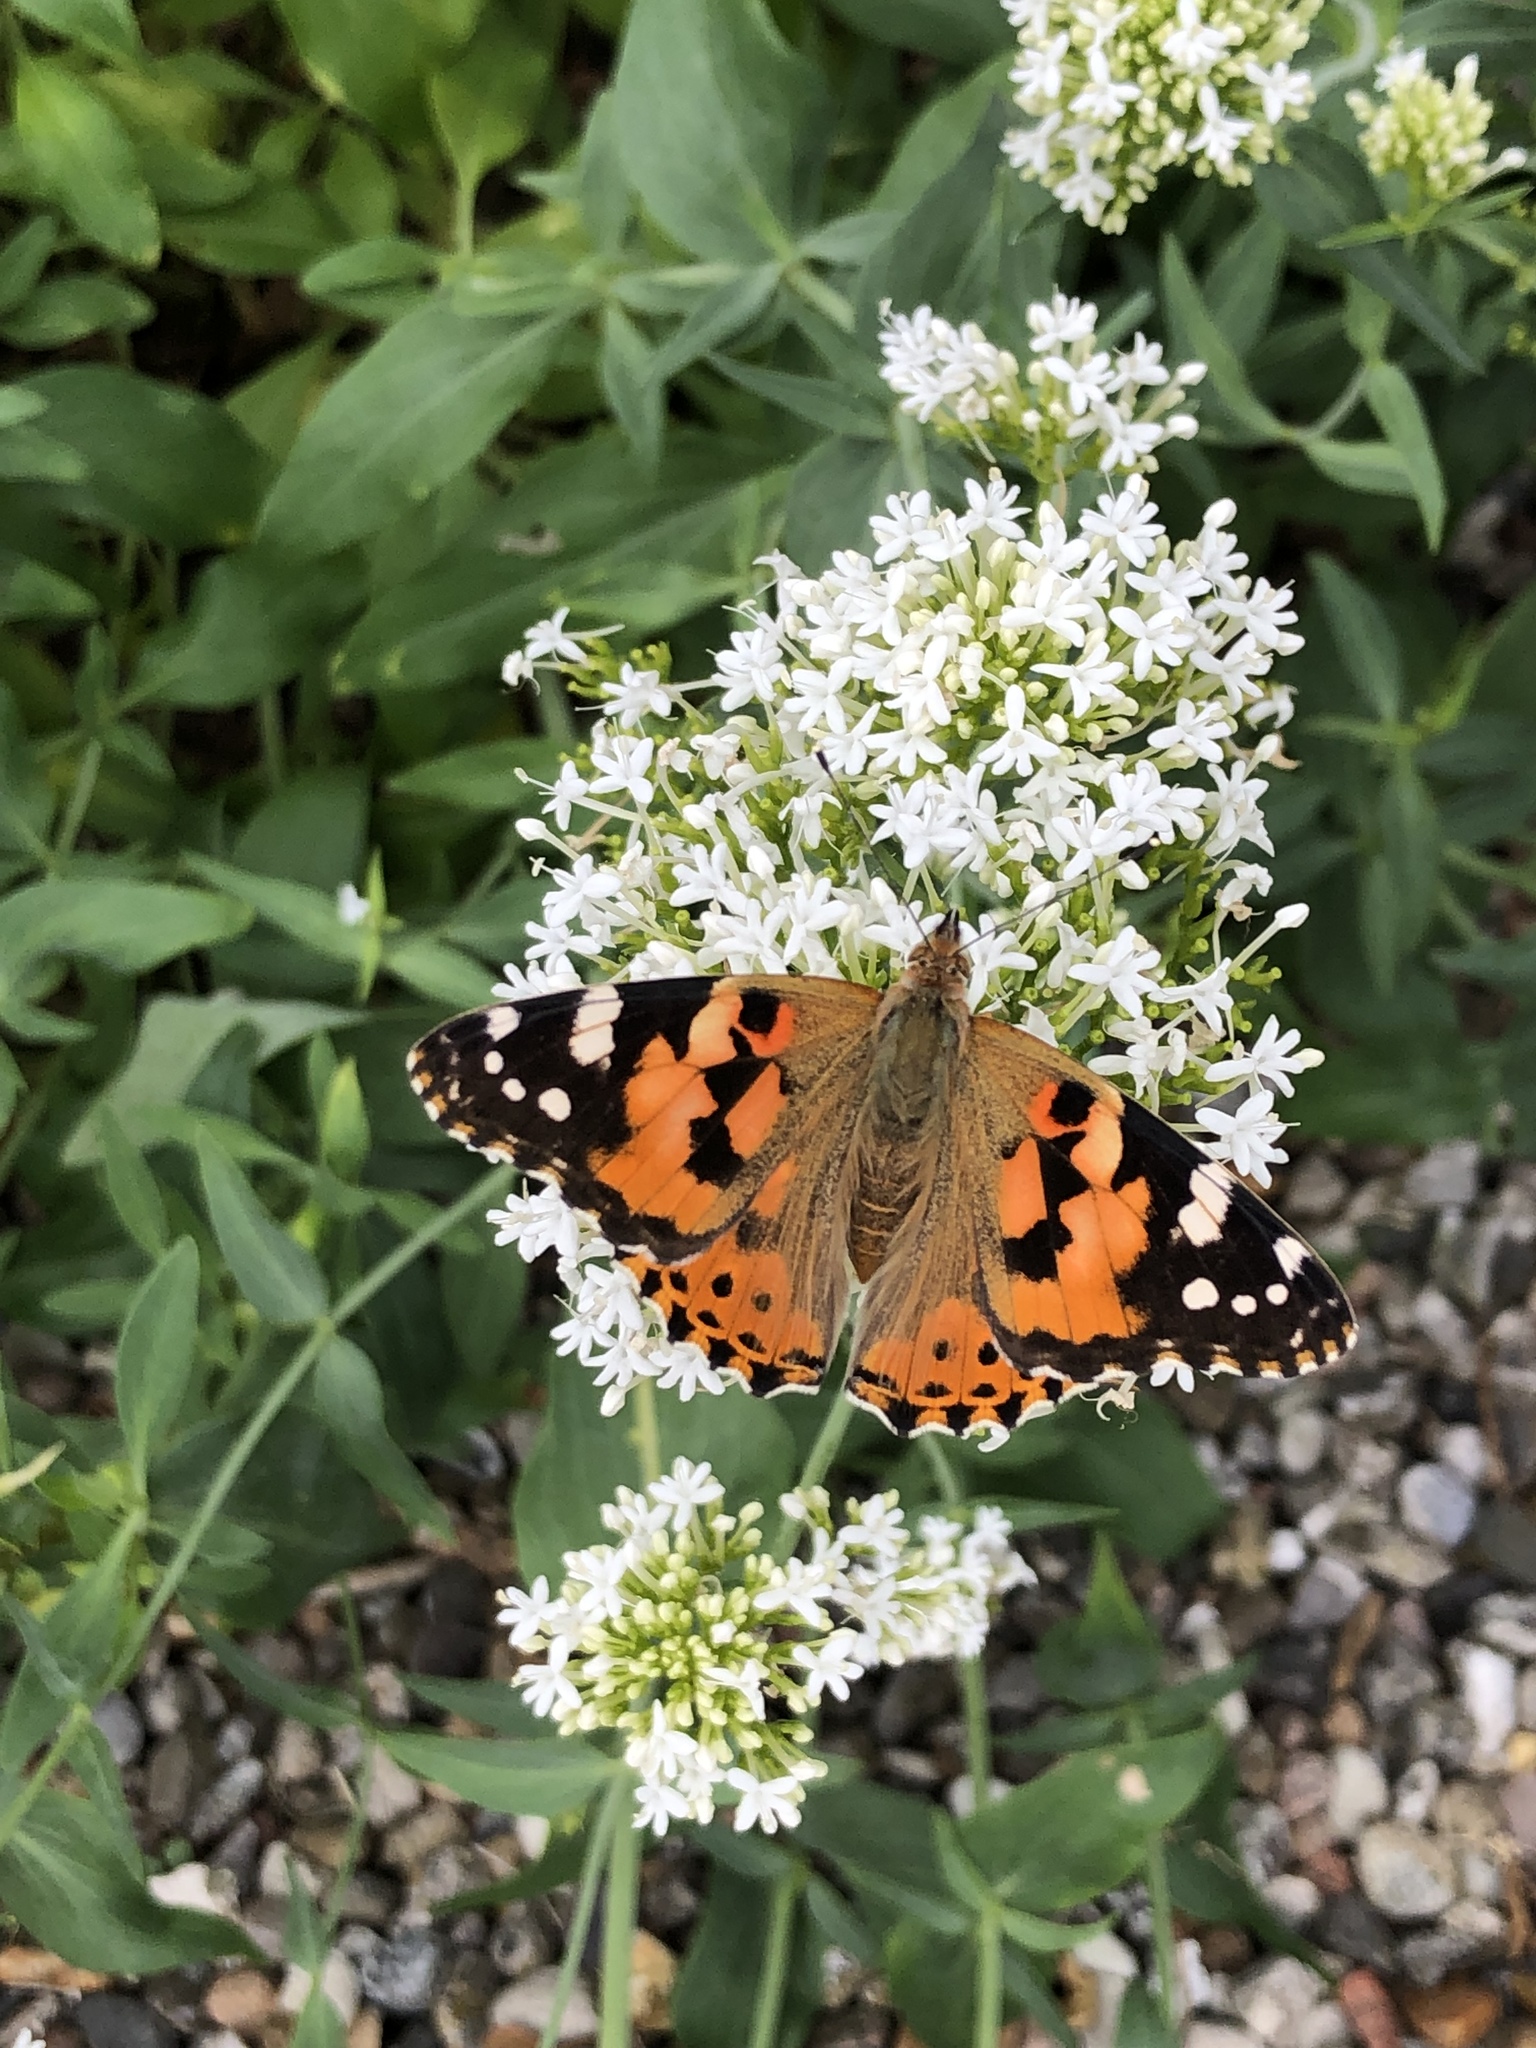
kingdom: Animalia
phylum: Arthropoda
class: Insecta
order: Lepidoptera
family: Nymphalidae
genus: Vanessa
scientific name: Vanessa cardui
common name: Painted lady
